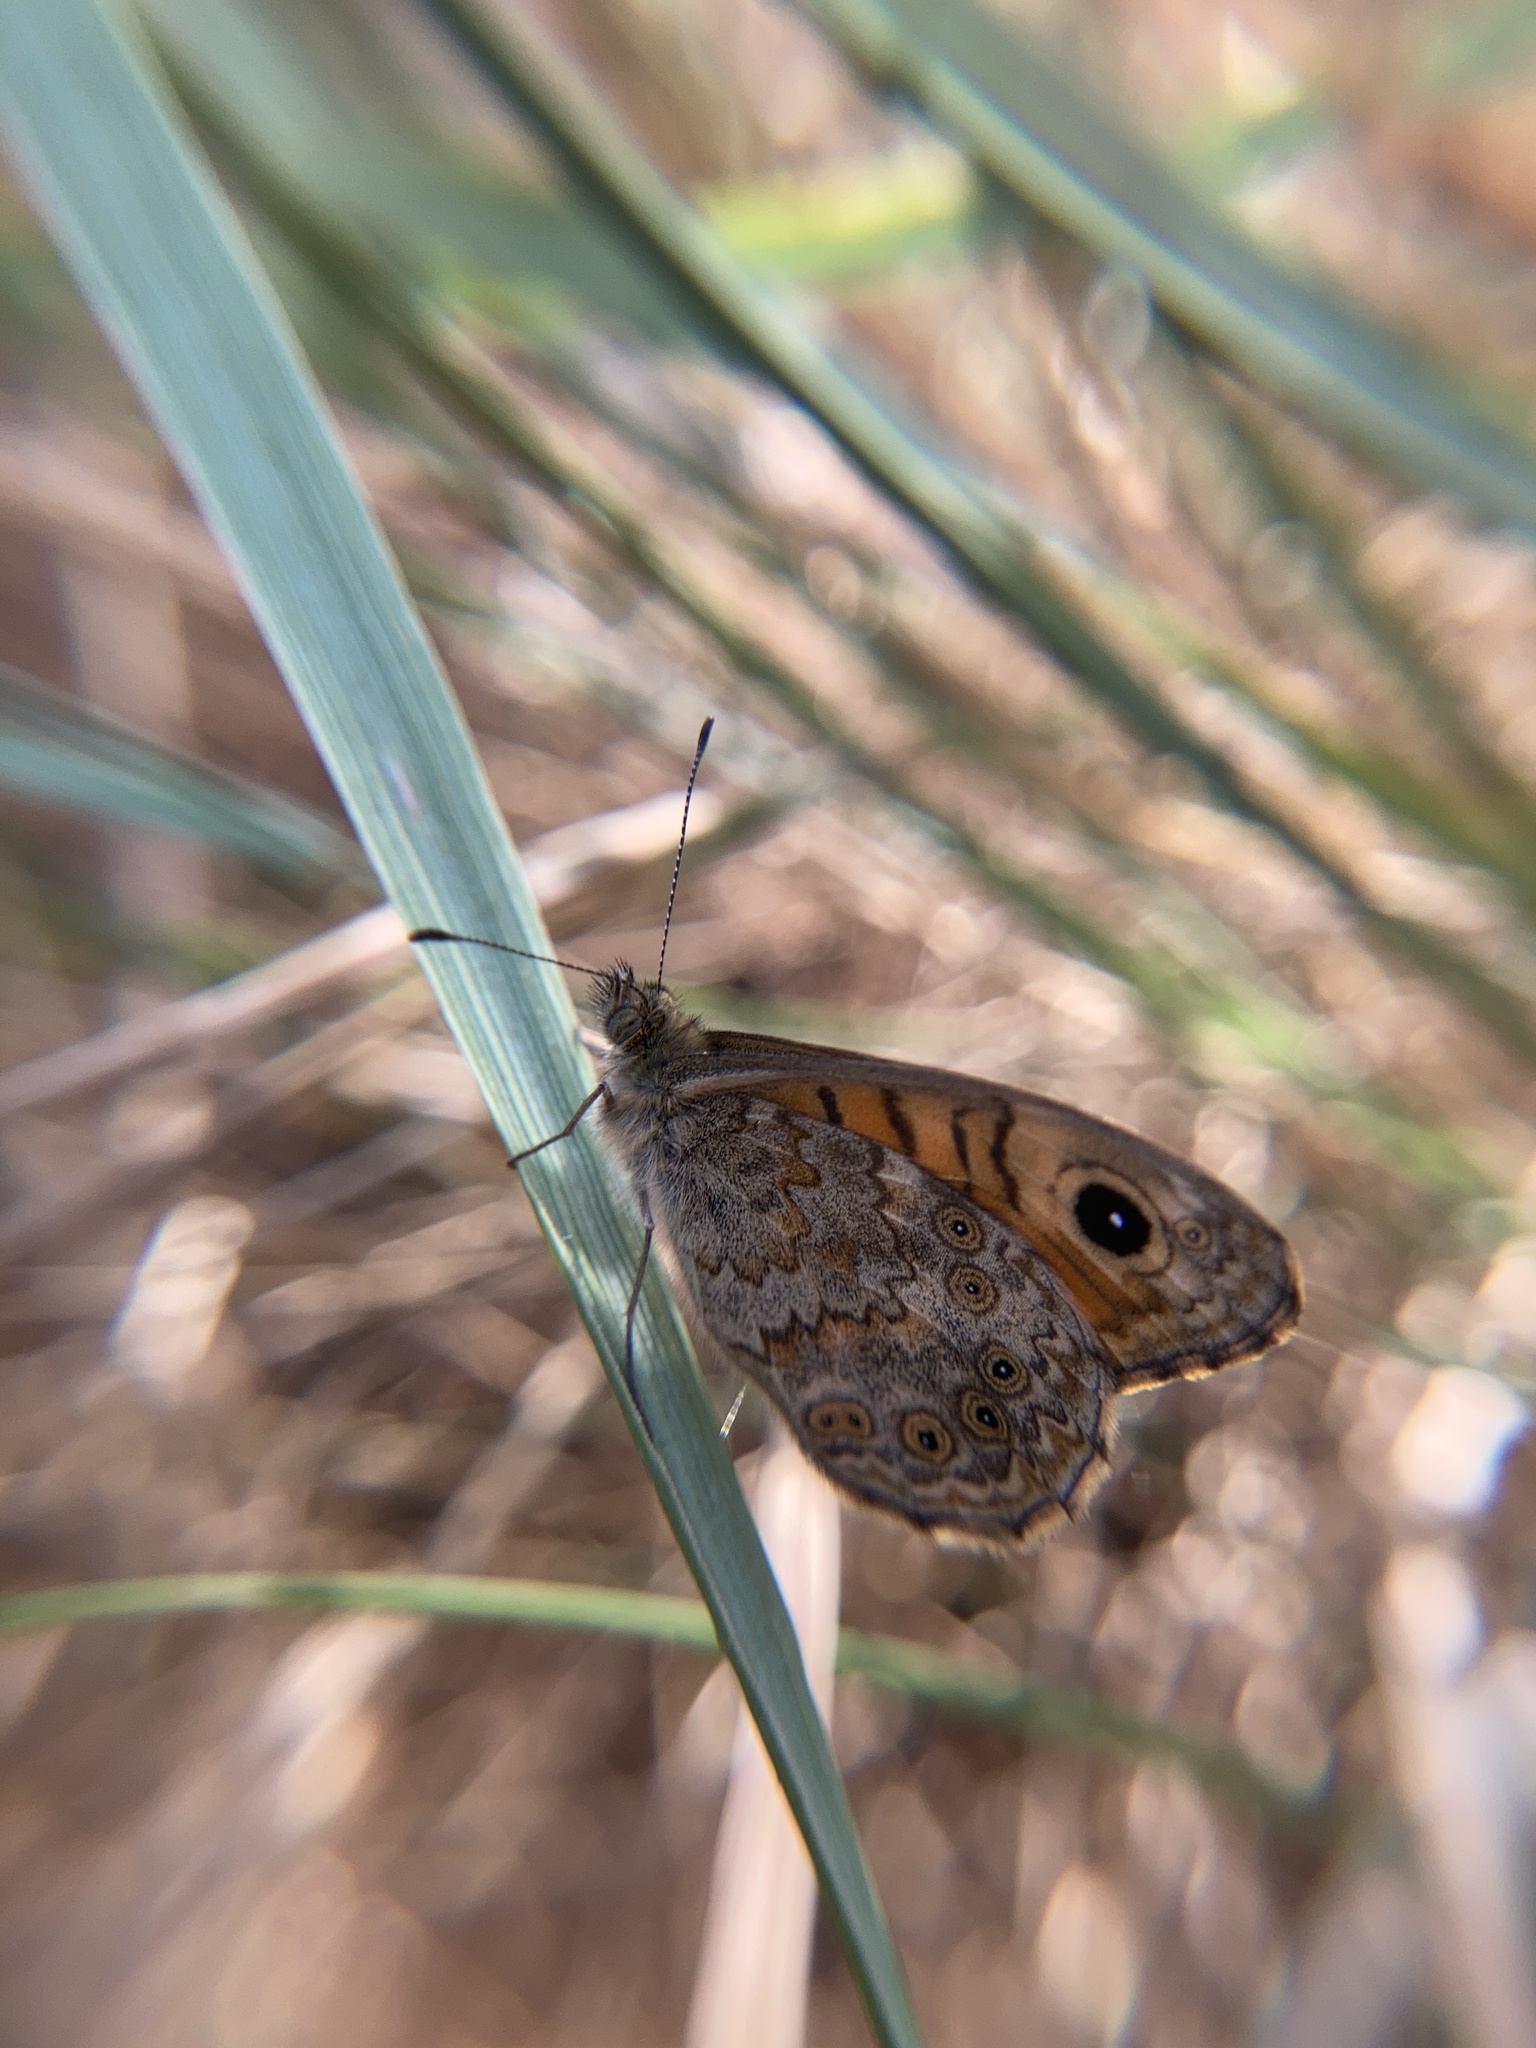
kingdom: Animalia
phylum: Arthropoda
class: Insecta
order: Lepidoptera
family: Nymphalidae
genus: Pararge
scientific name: Pararge Lasiommata megera
